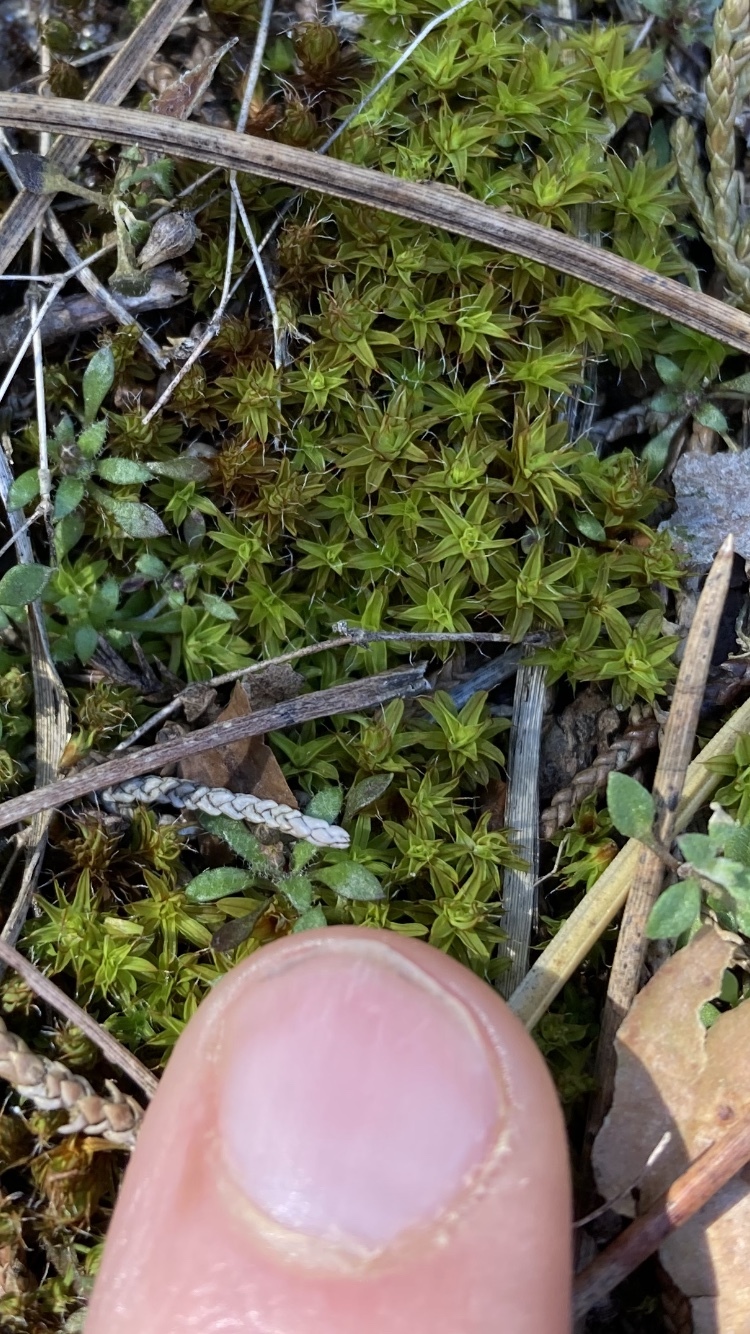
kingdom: Plantae
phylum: Bryophyta
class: Bryopsida
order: Pottiales
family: Pottiaceae
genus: Syntrichia
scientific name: Syntrichia ruralis
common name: Sidewalk screw moss
